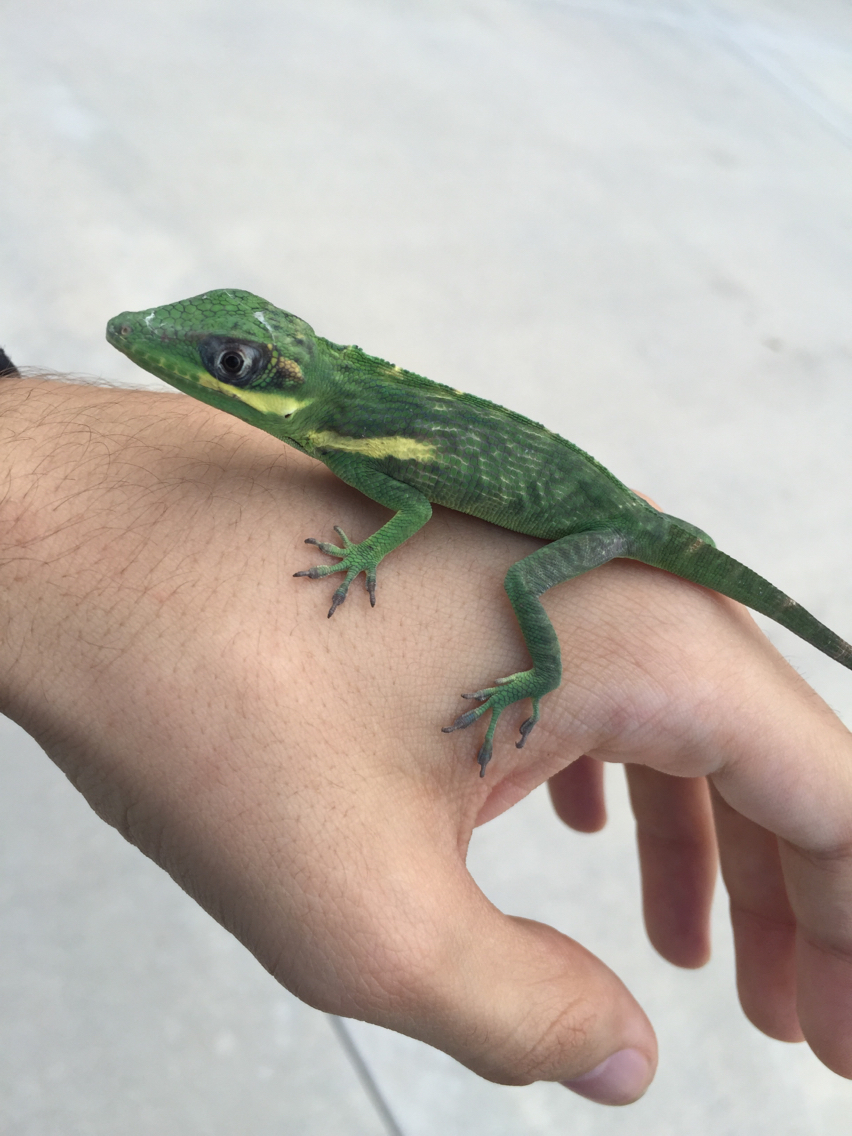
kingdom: Animalia
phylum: Chordata
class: Squamata
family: Dactyloidae
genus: Anolis
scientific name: Anolis equestris
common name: Knight anole
